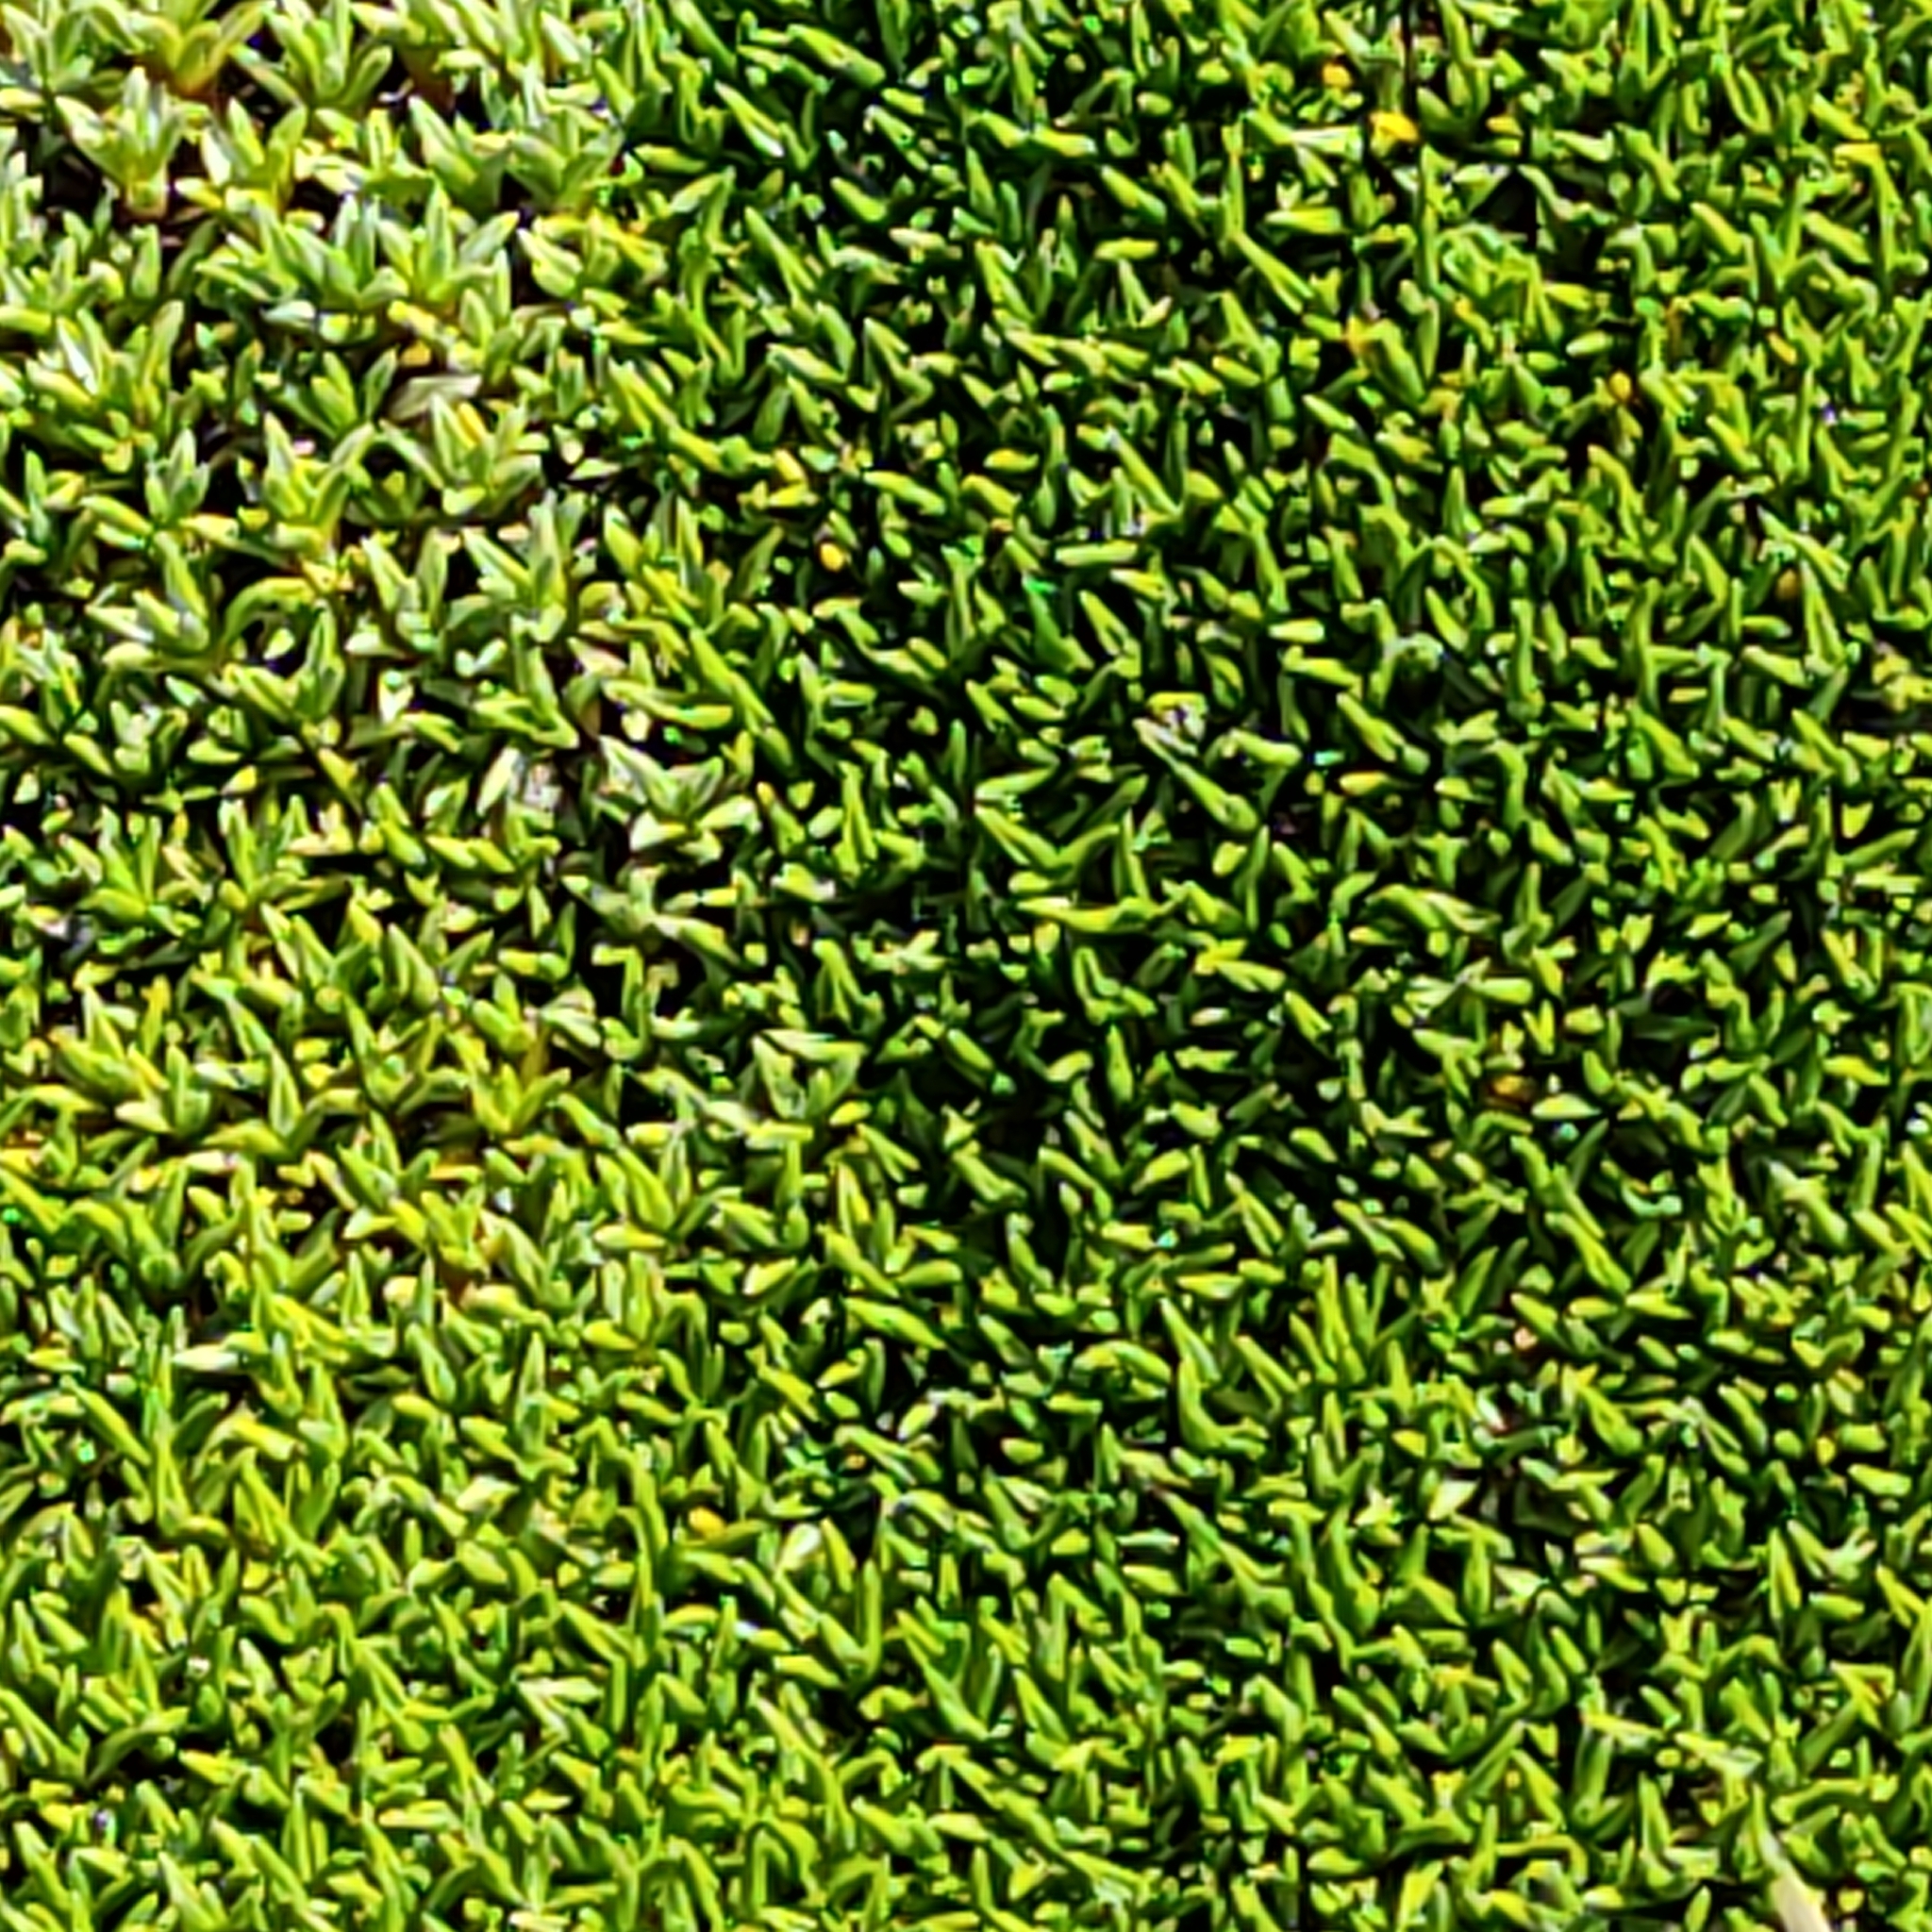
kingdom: Plantae
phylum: Tracheophyta
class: Magnoliopsida
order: Asterales
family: Asteraceae
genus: Raoulia
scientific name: Raoulia haastii
